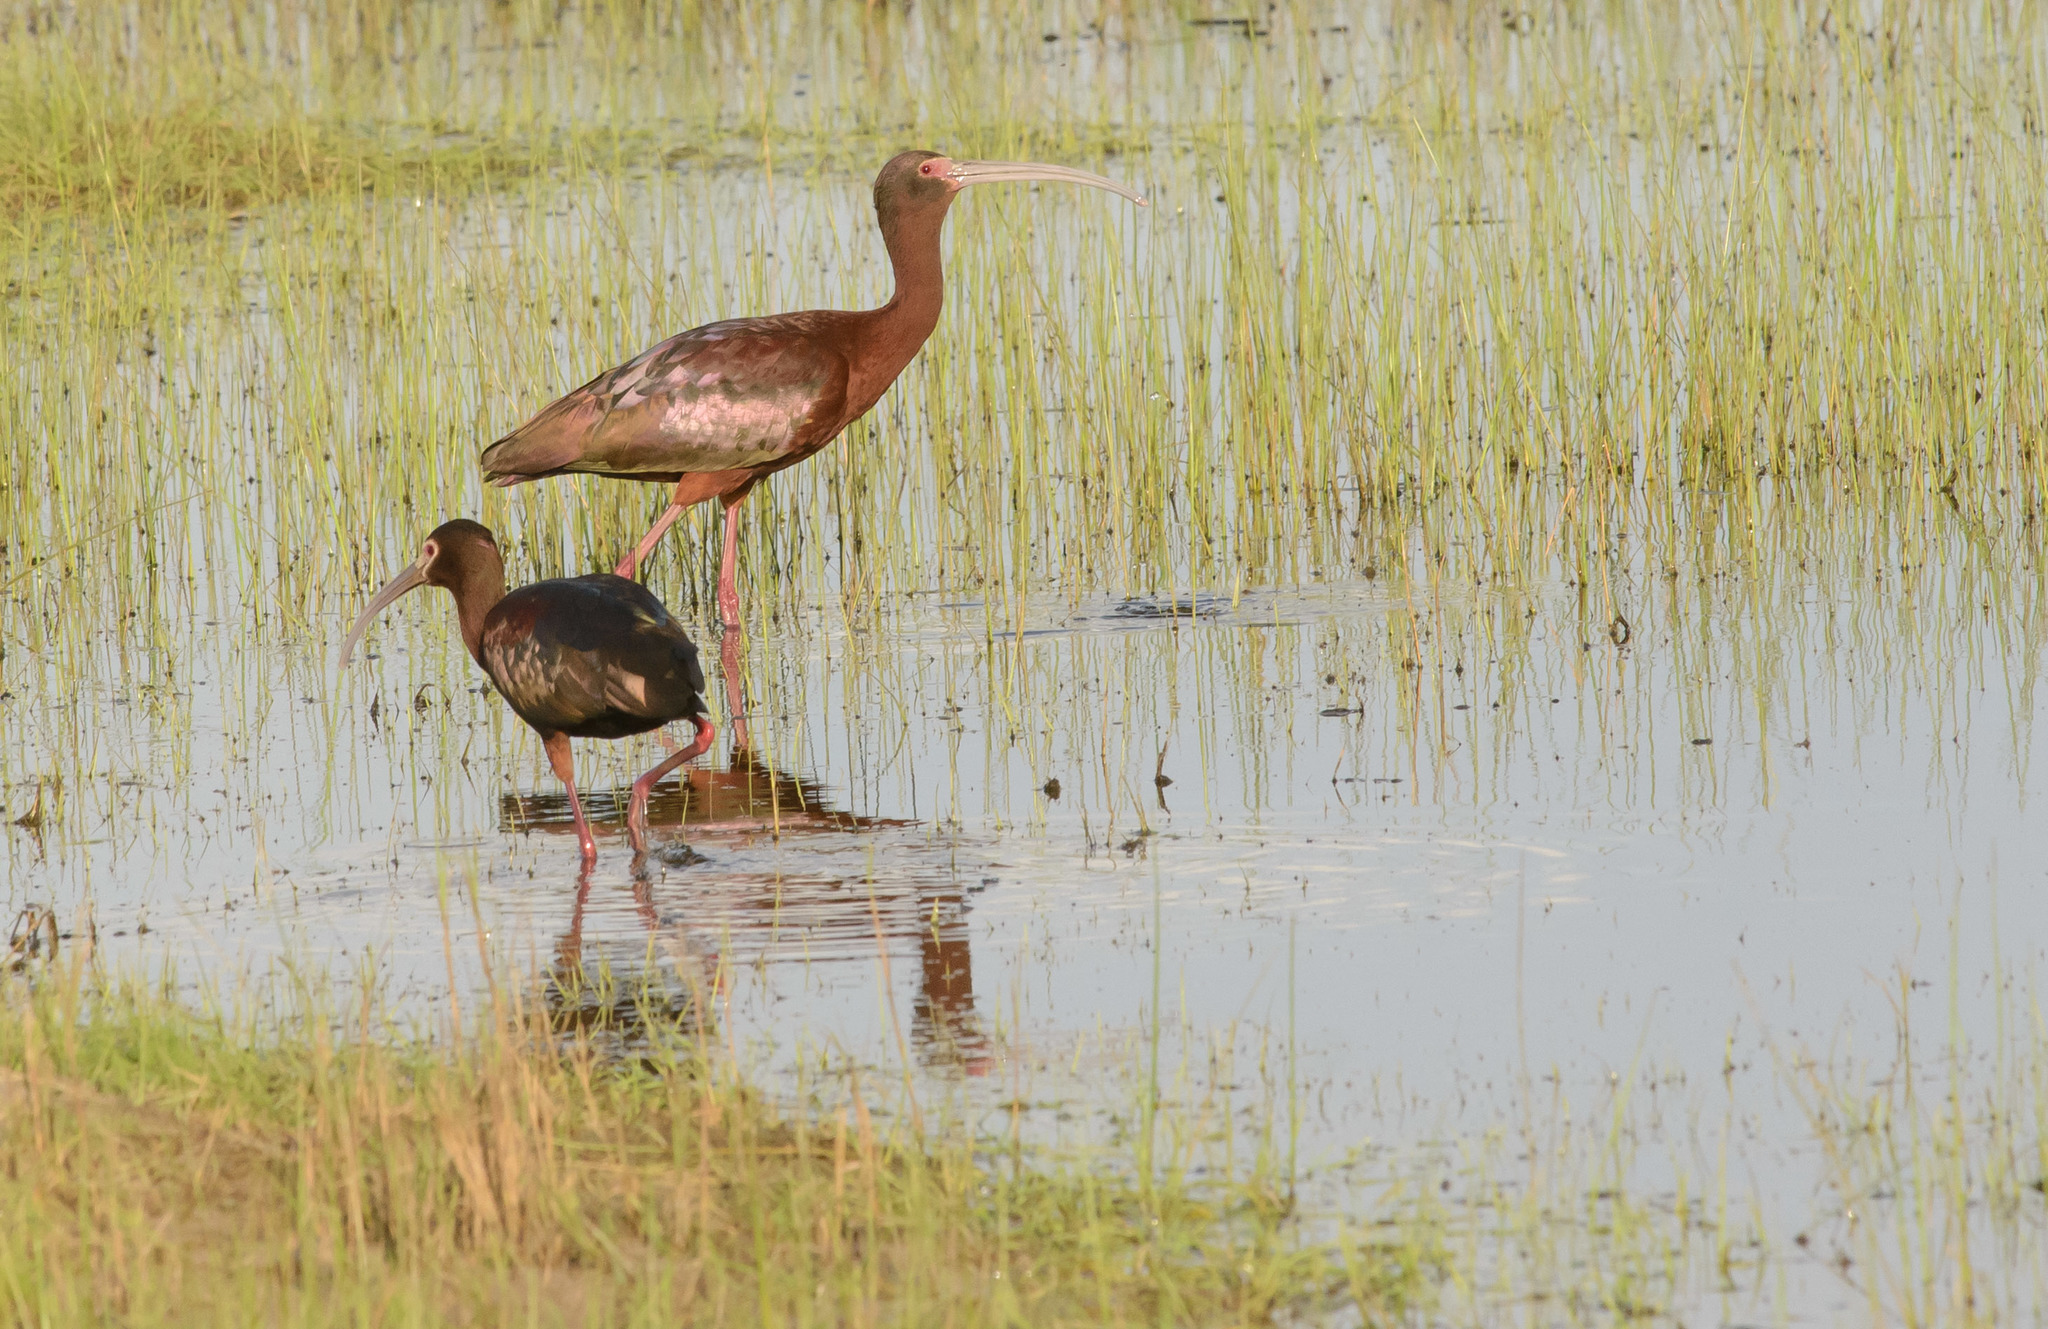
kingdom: Animalia
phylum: Chordata
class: Aves
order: Pelecaniformes
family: Threskiornithidae
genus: Plegadis
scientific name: Plegadis chihi
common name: White-faced ibis
